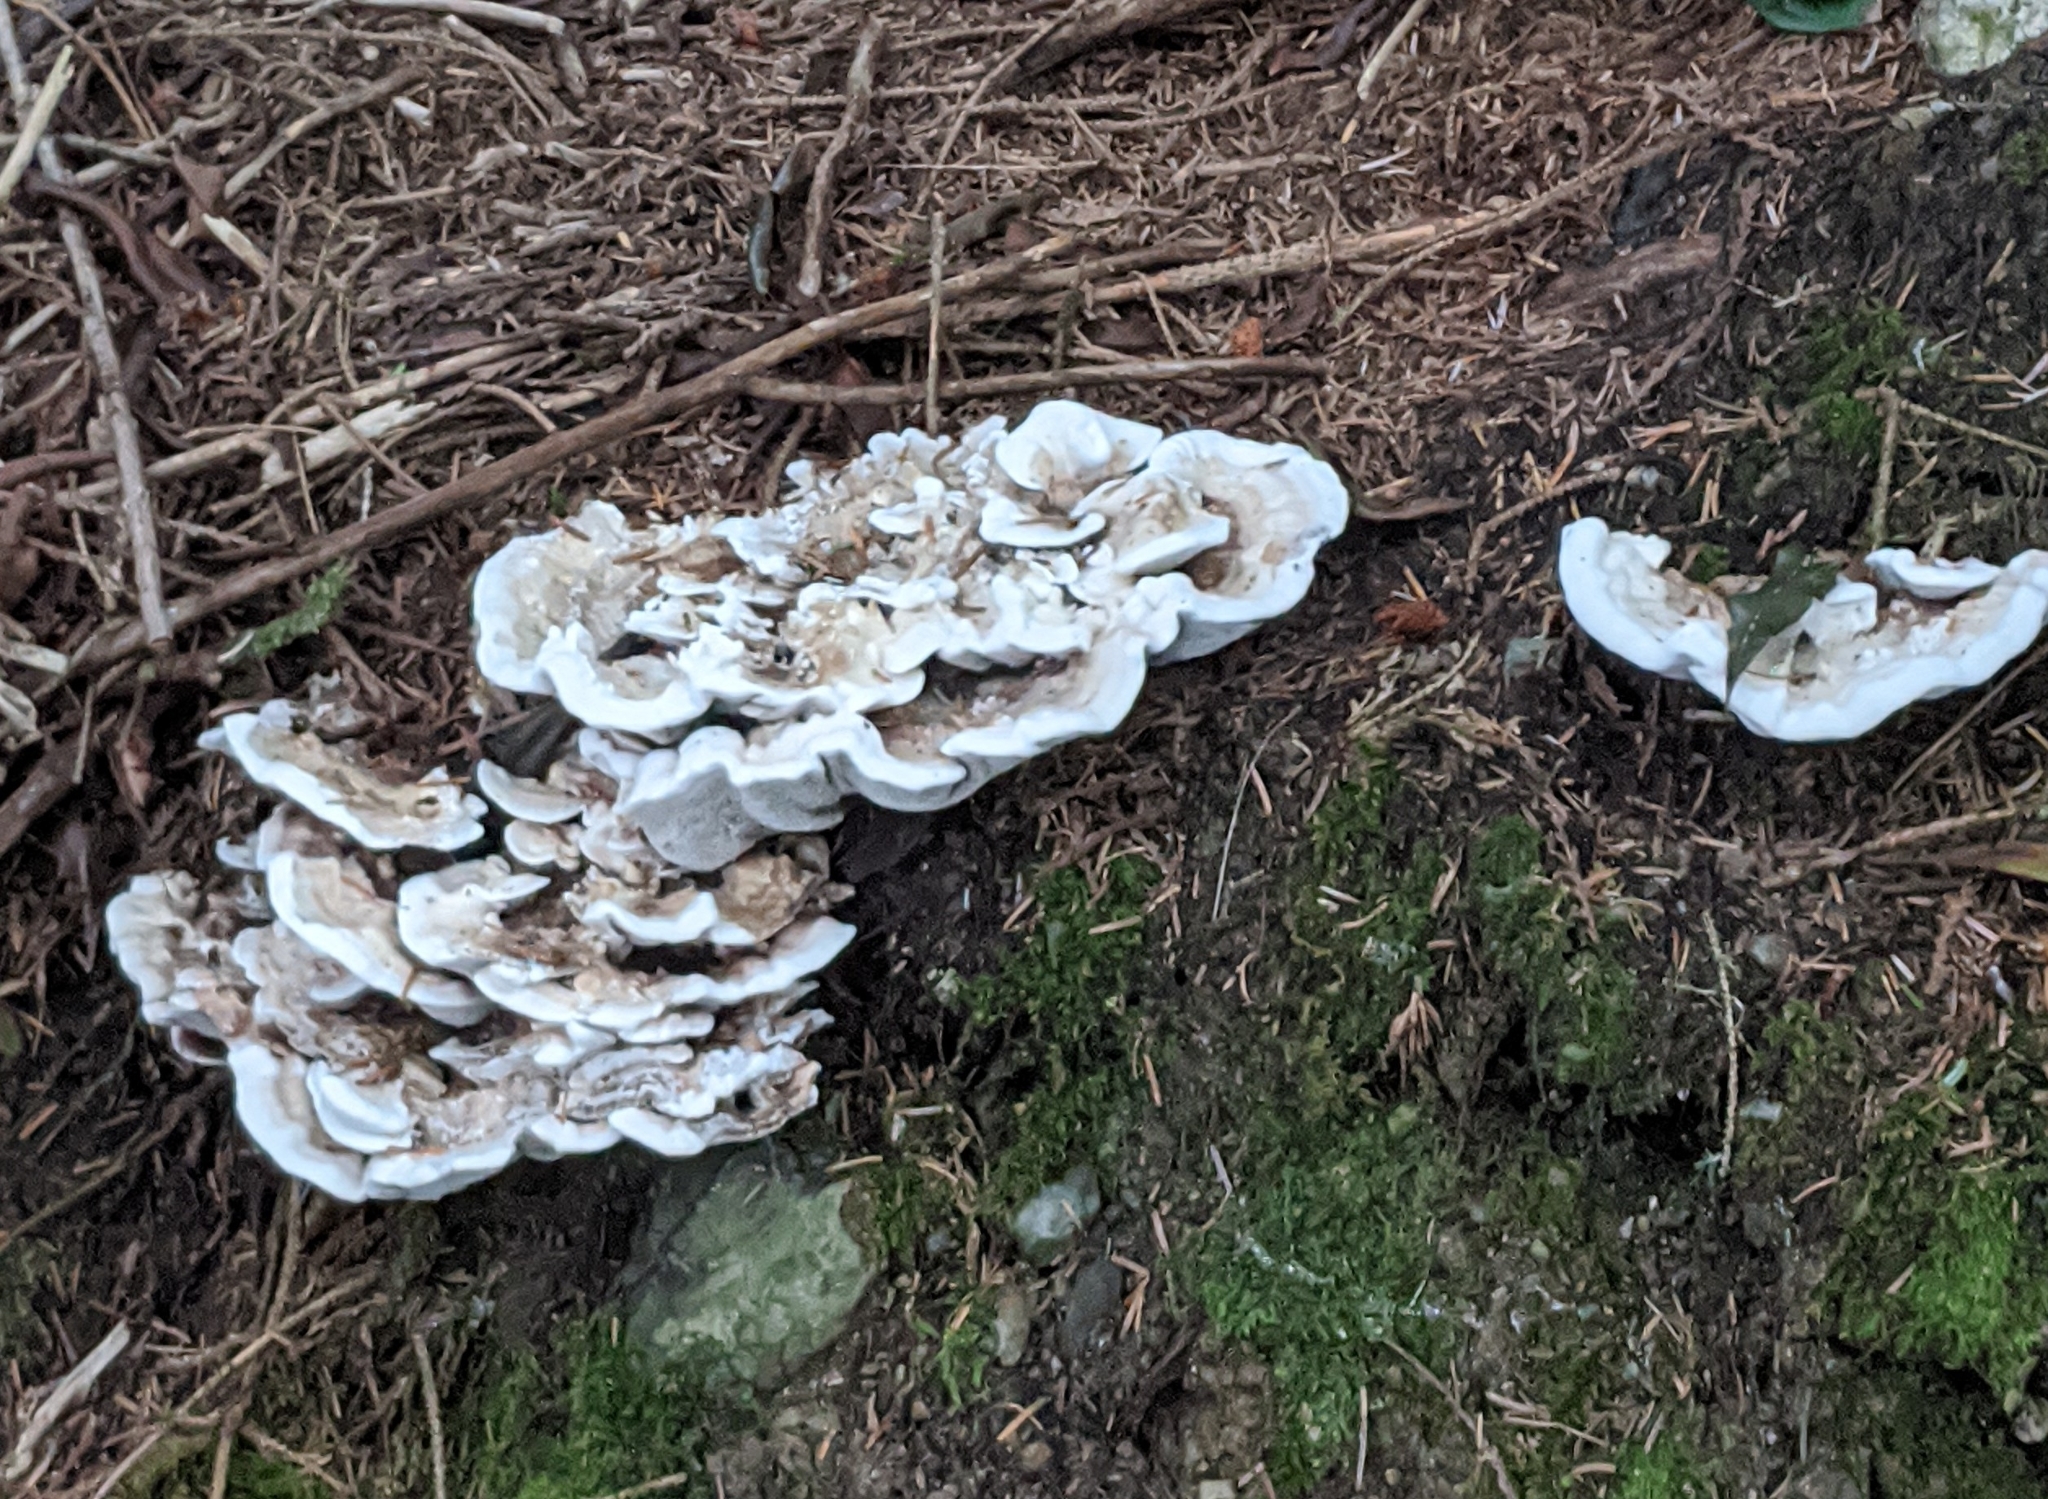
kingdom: Fungi
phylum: Basidiomycota
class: Agaricomycetes
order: Polyporales
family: Polyporaceae
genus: Trametes
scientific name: Trametes versicolor
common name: Turkeytail
